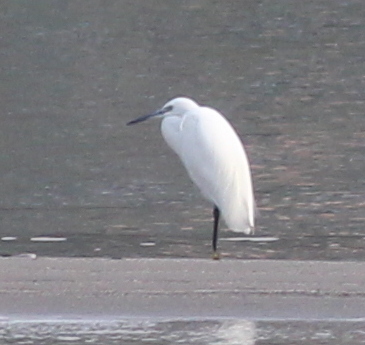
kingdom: Animalia
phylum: Chordata
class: Aves
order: Pelecaniformes
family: Ardeidae
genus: Egretta
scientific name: Egretta garzetta
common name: Little egret
